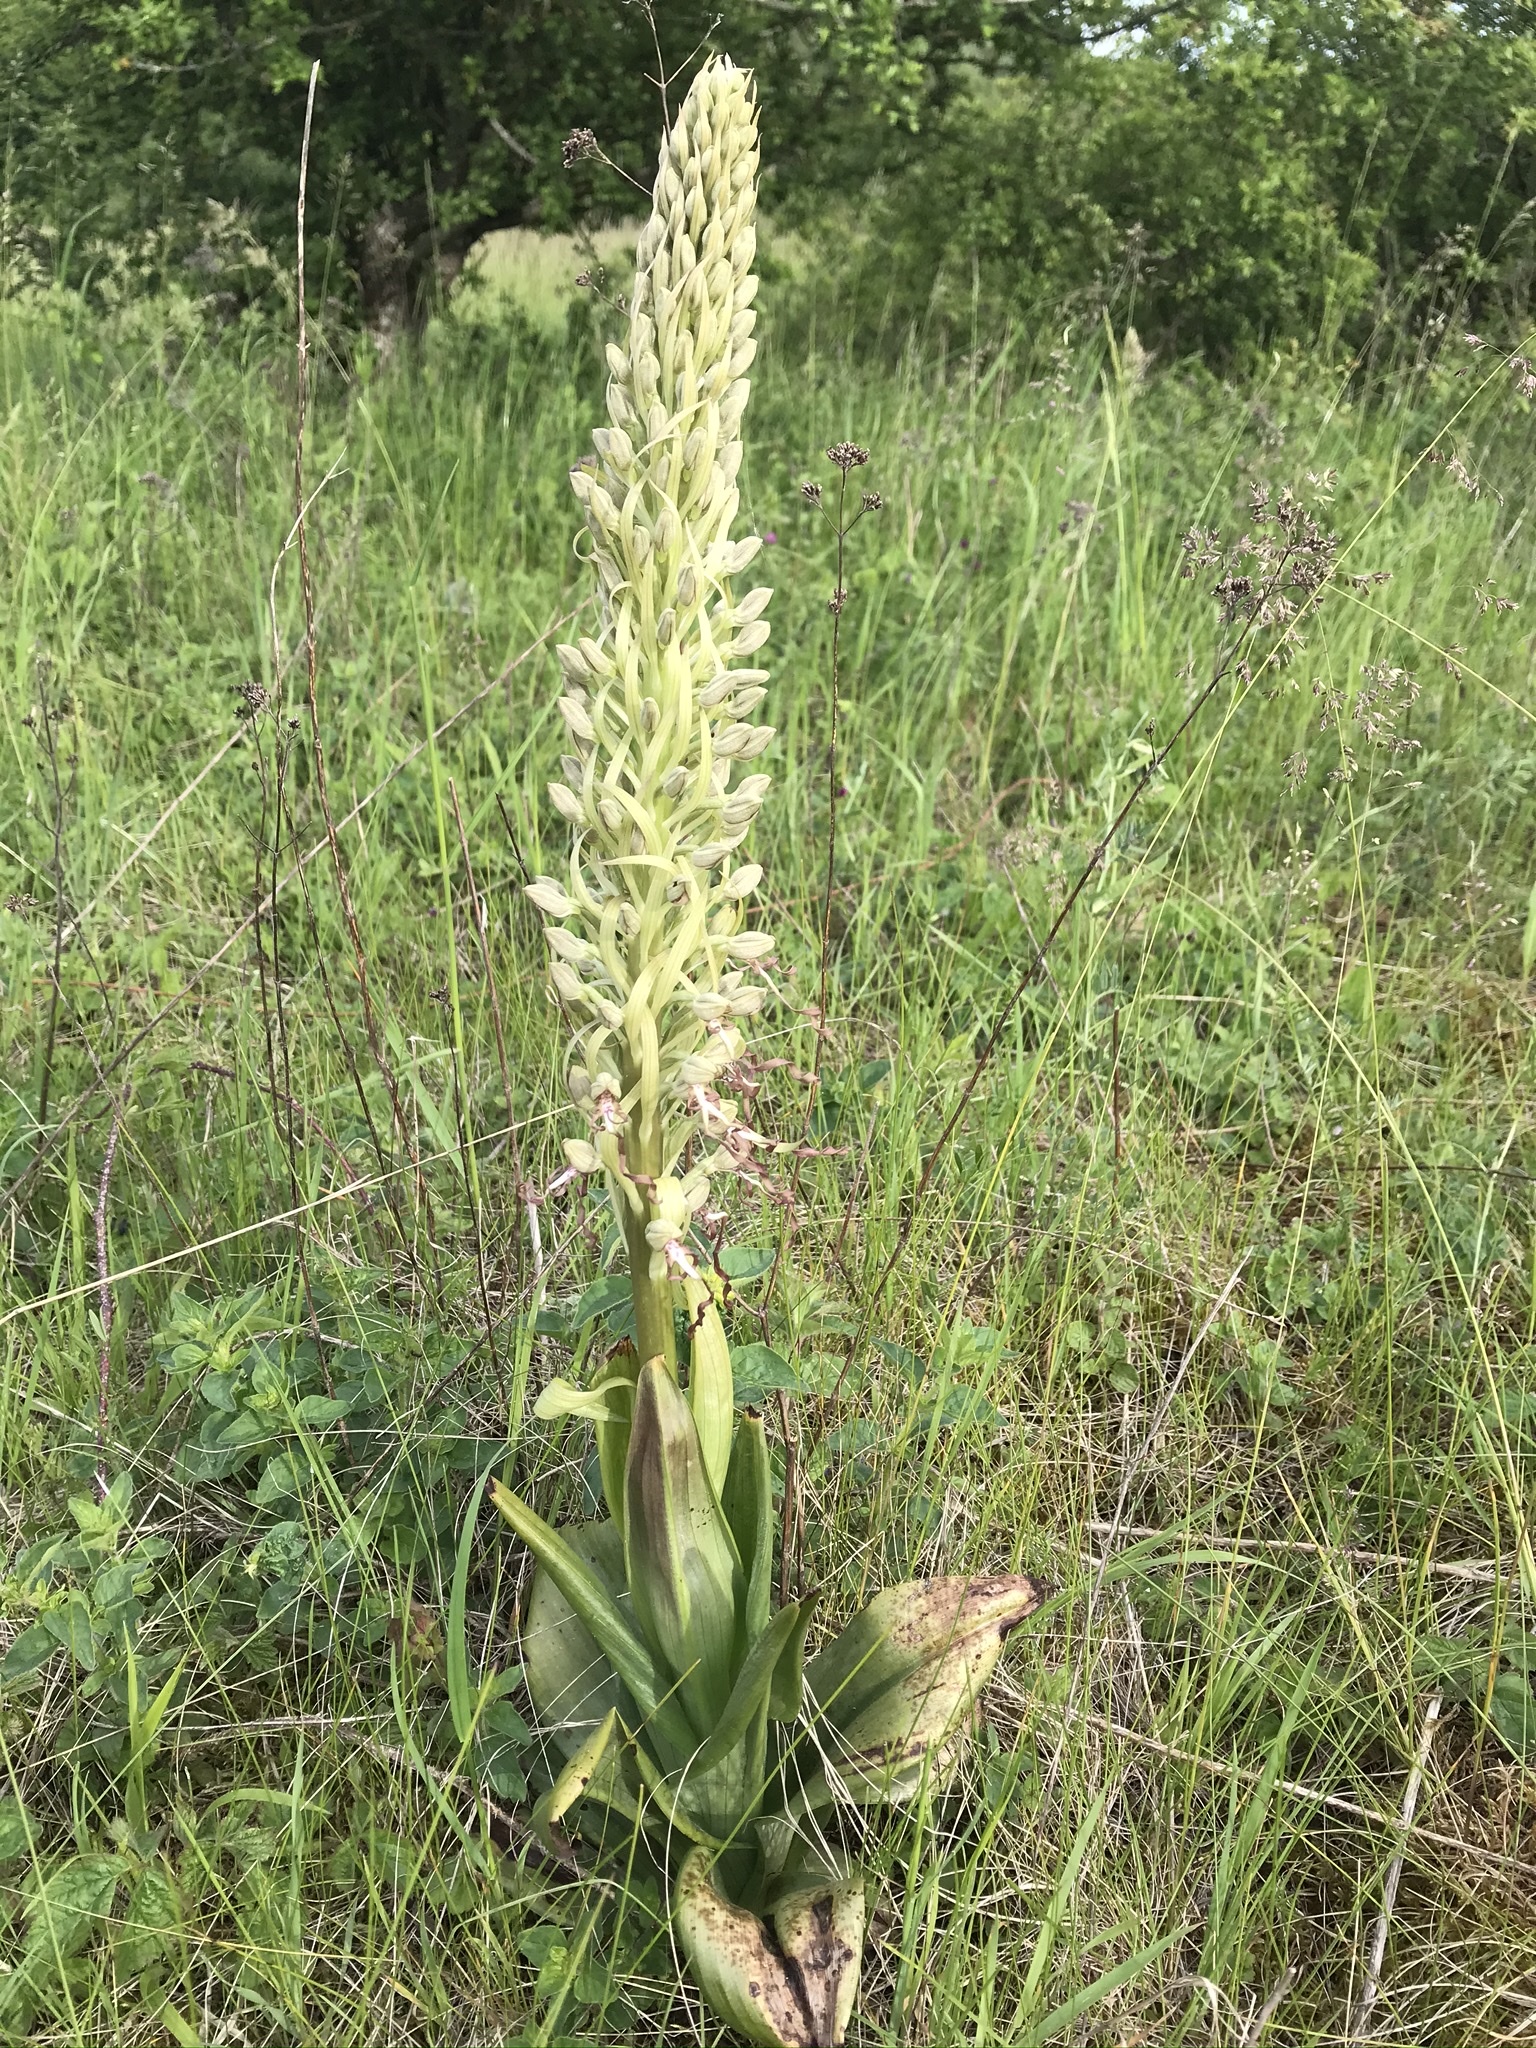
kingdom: Plantae
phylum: Tracheophyta
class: Liliopsida
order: Asparagales
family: Orchidaceae
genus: Himantoglossum
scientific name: Himantoglossum hircinum
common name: Lizard orchid
